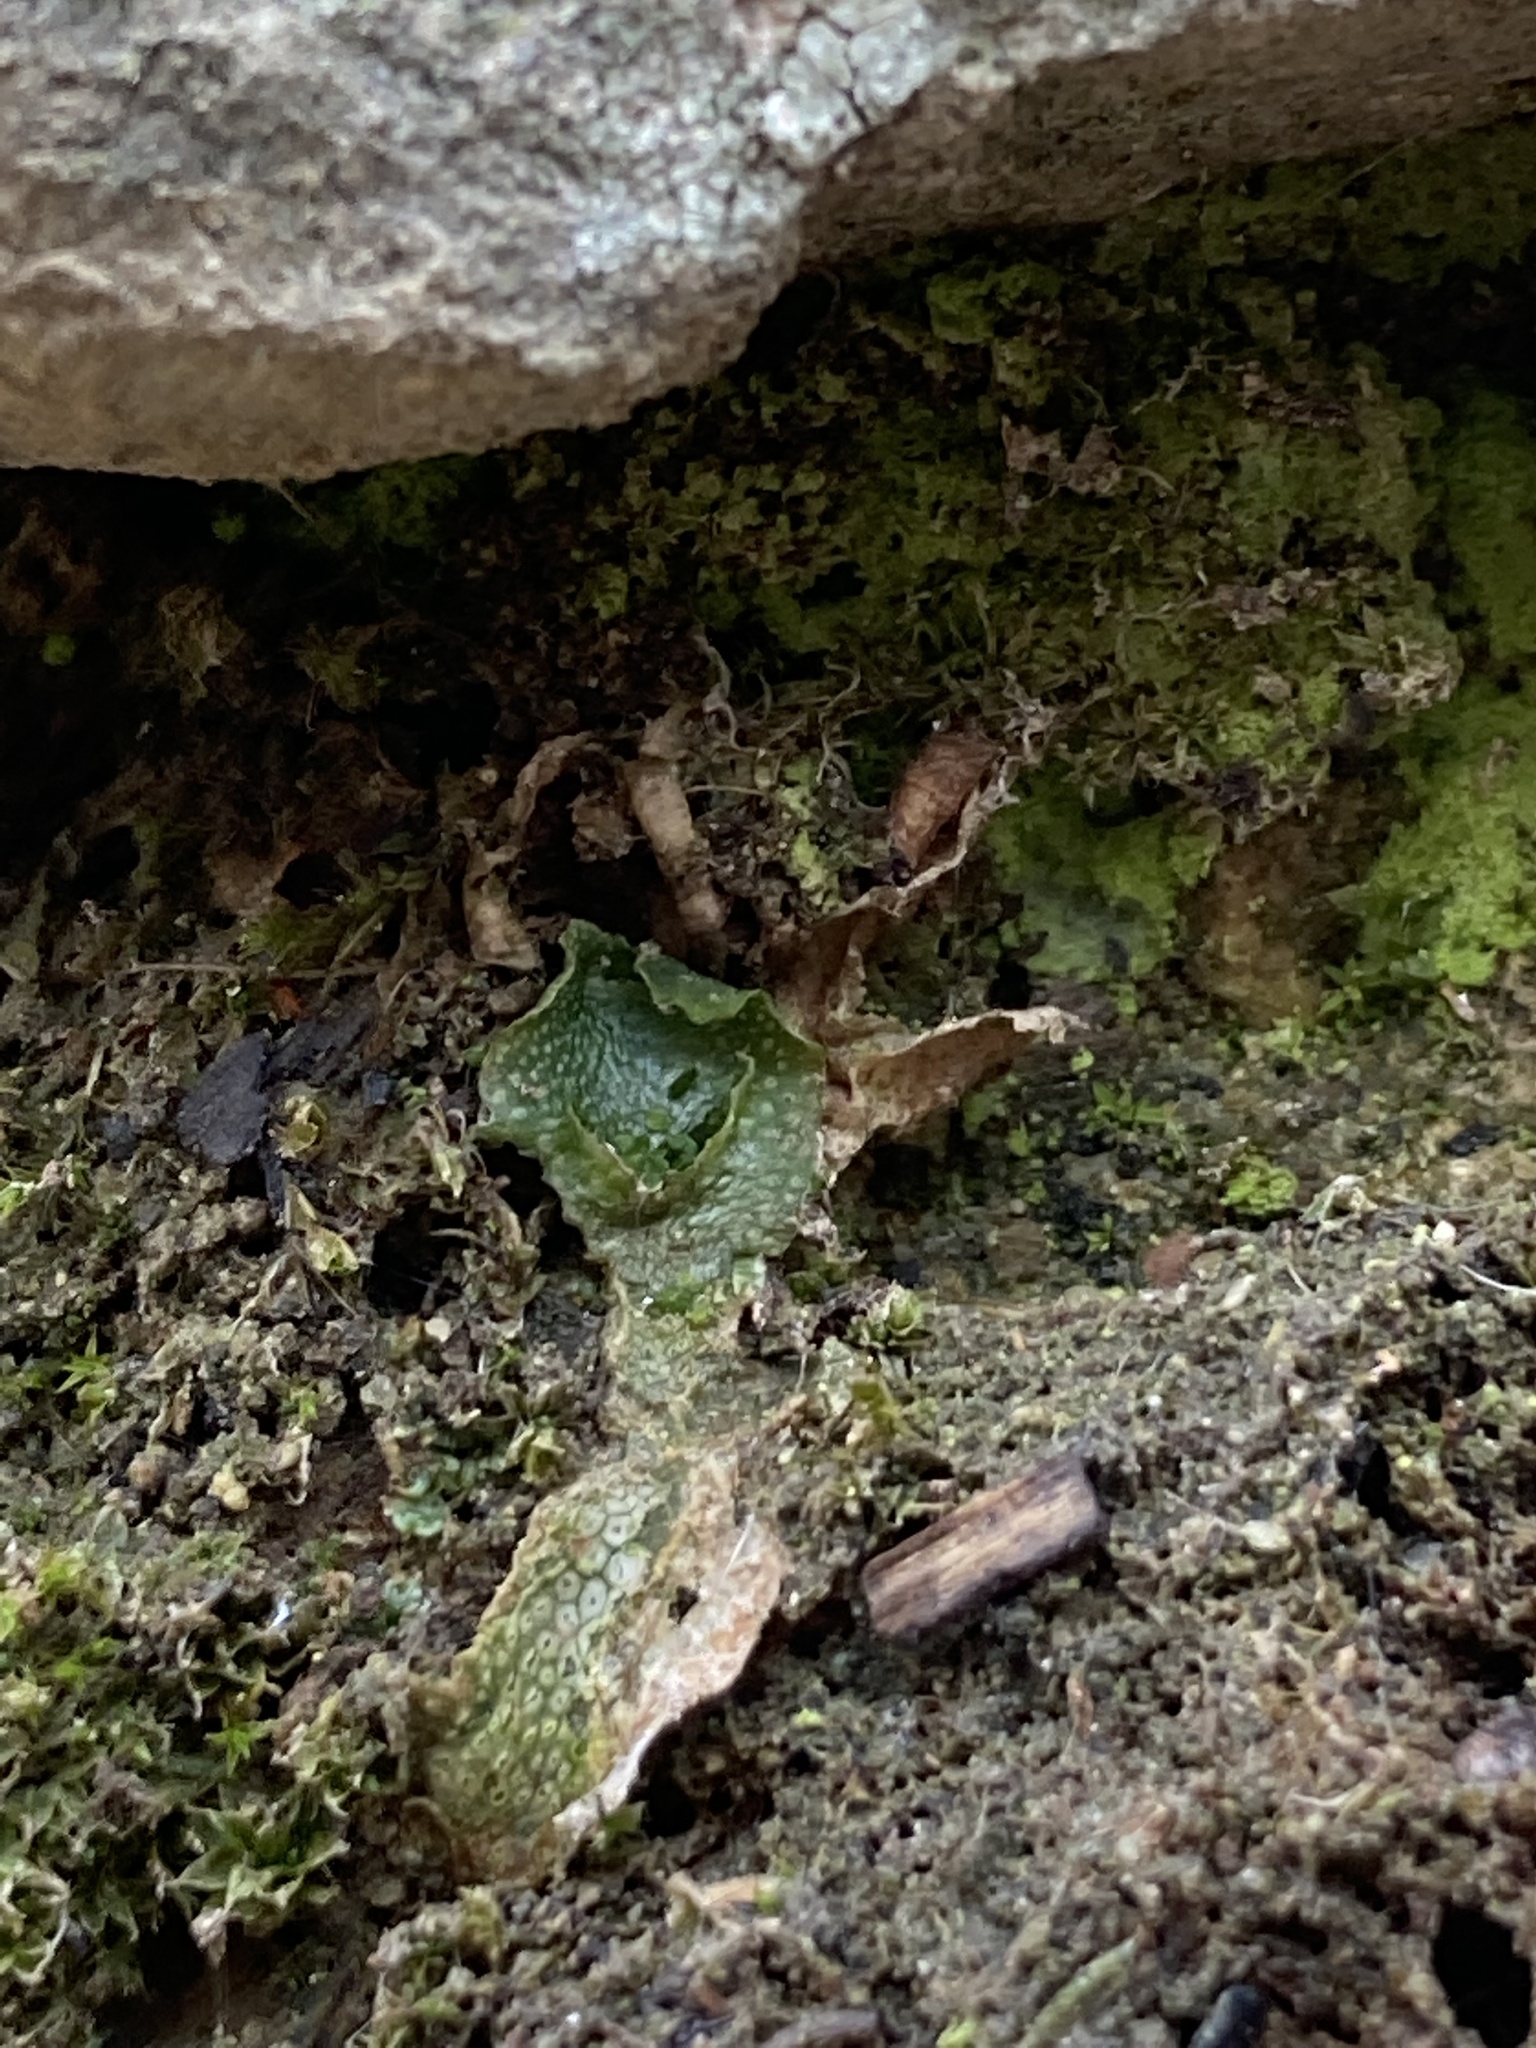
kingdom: Plantae
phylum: Marchantiophyta
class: Marchantiopsida
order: Lunulariales
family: Lunulariaceae
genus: Lunularia
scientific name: Lunularia cruciata
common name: Crescent-cup liverwort
